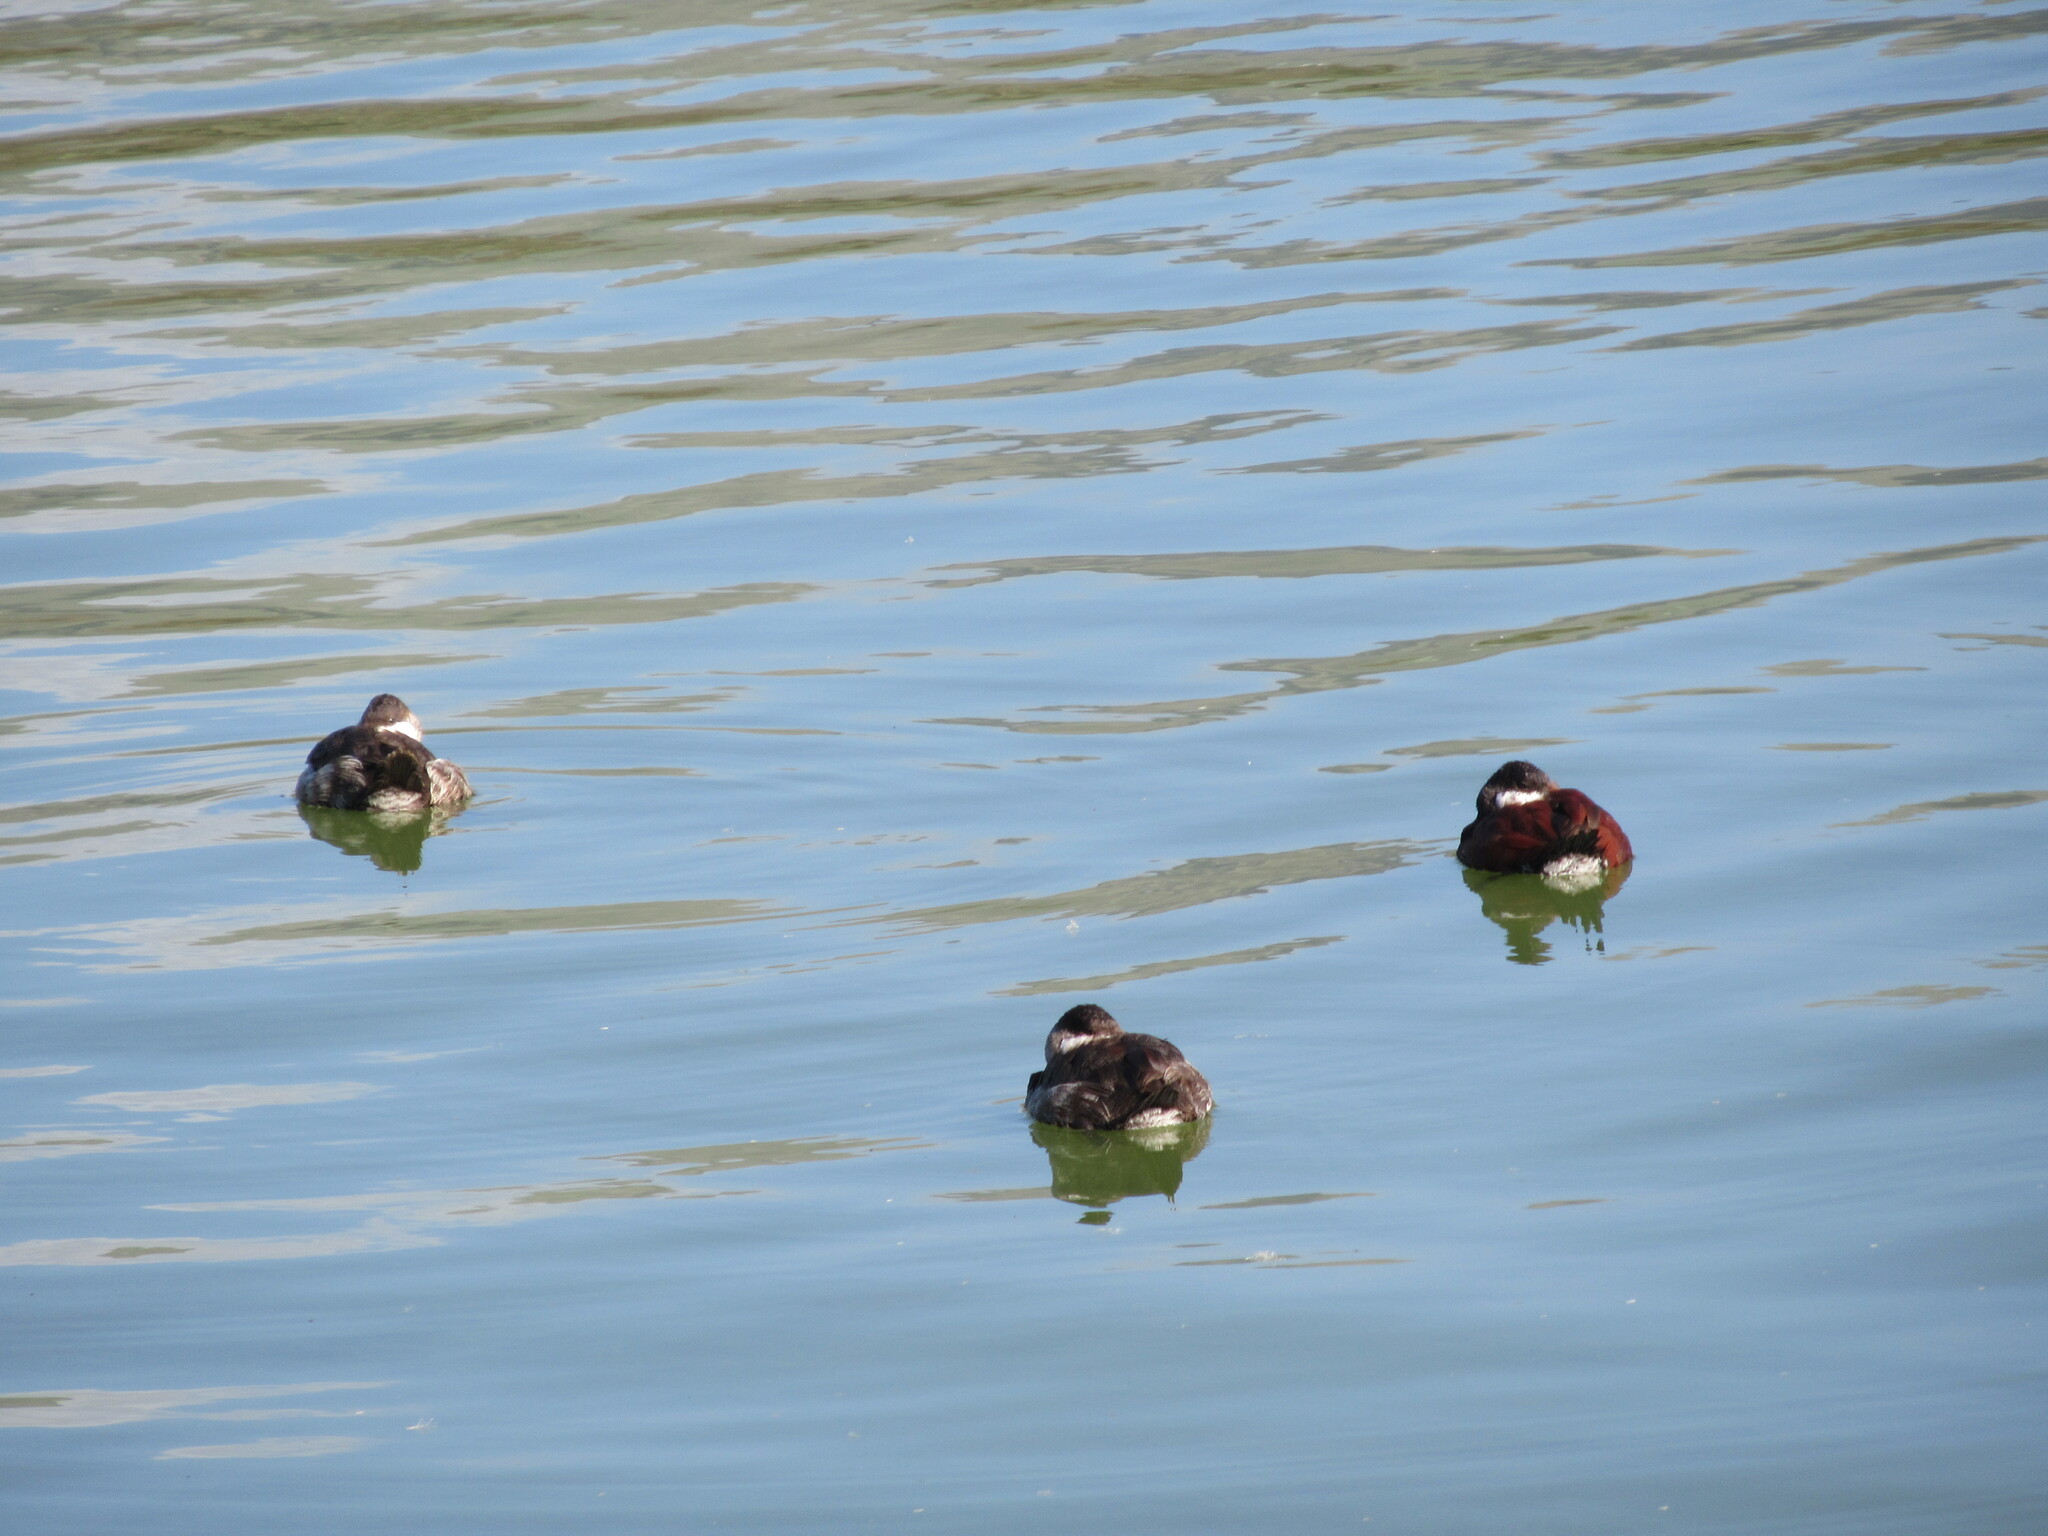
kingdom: Animalia
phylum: Chordata
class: Aves
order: Anseriformes
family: Anatidae
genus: Oxyura
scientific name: Oxyura jamaicensis
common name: Ruddy duck
